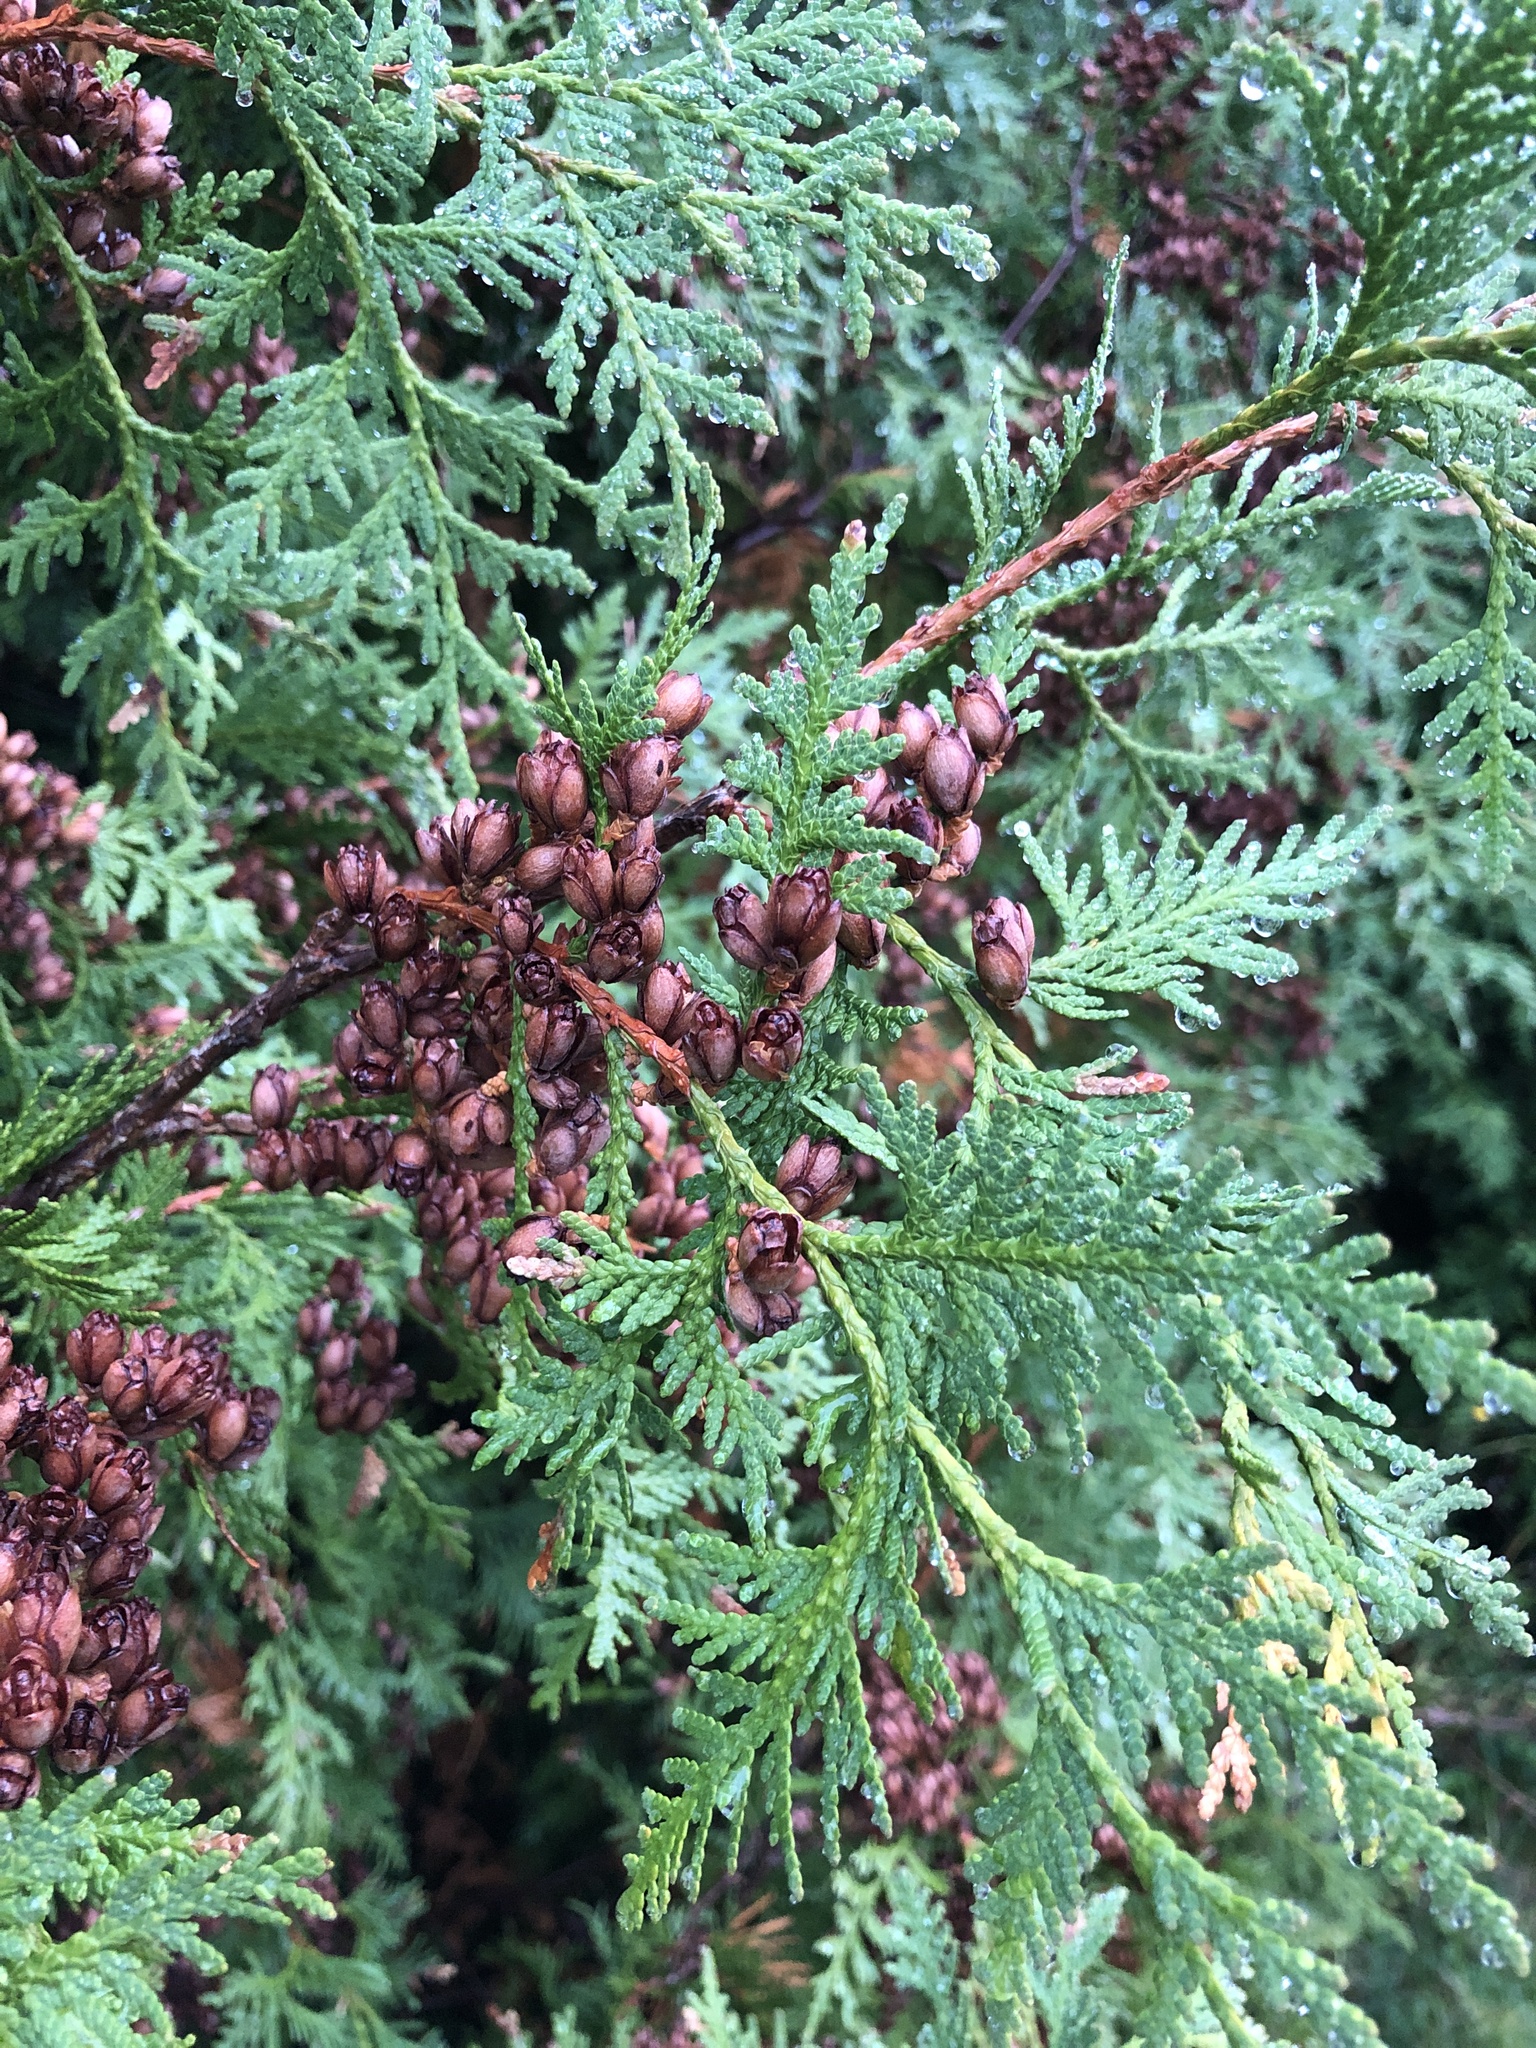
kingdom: Plantae
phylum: Tracheophyta
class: Pinopsida
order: Pinales
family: Cupressaceae
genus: Thuja
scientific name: Thuja occidentalis
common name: Northern white-cedar
